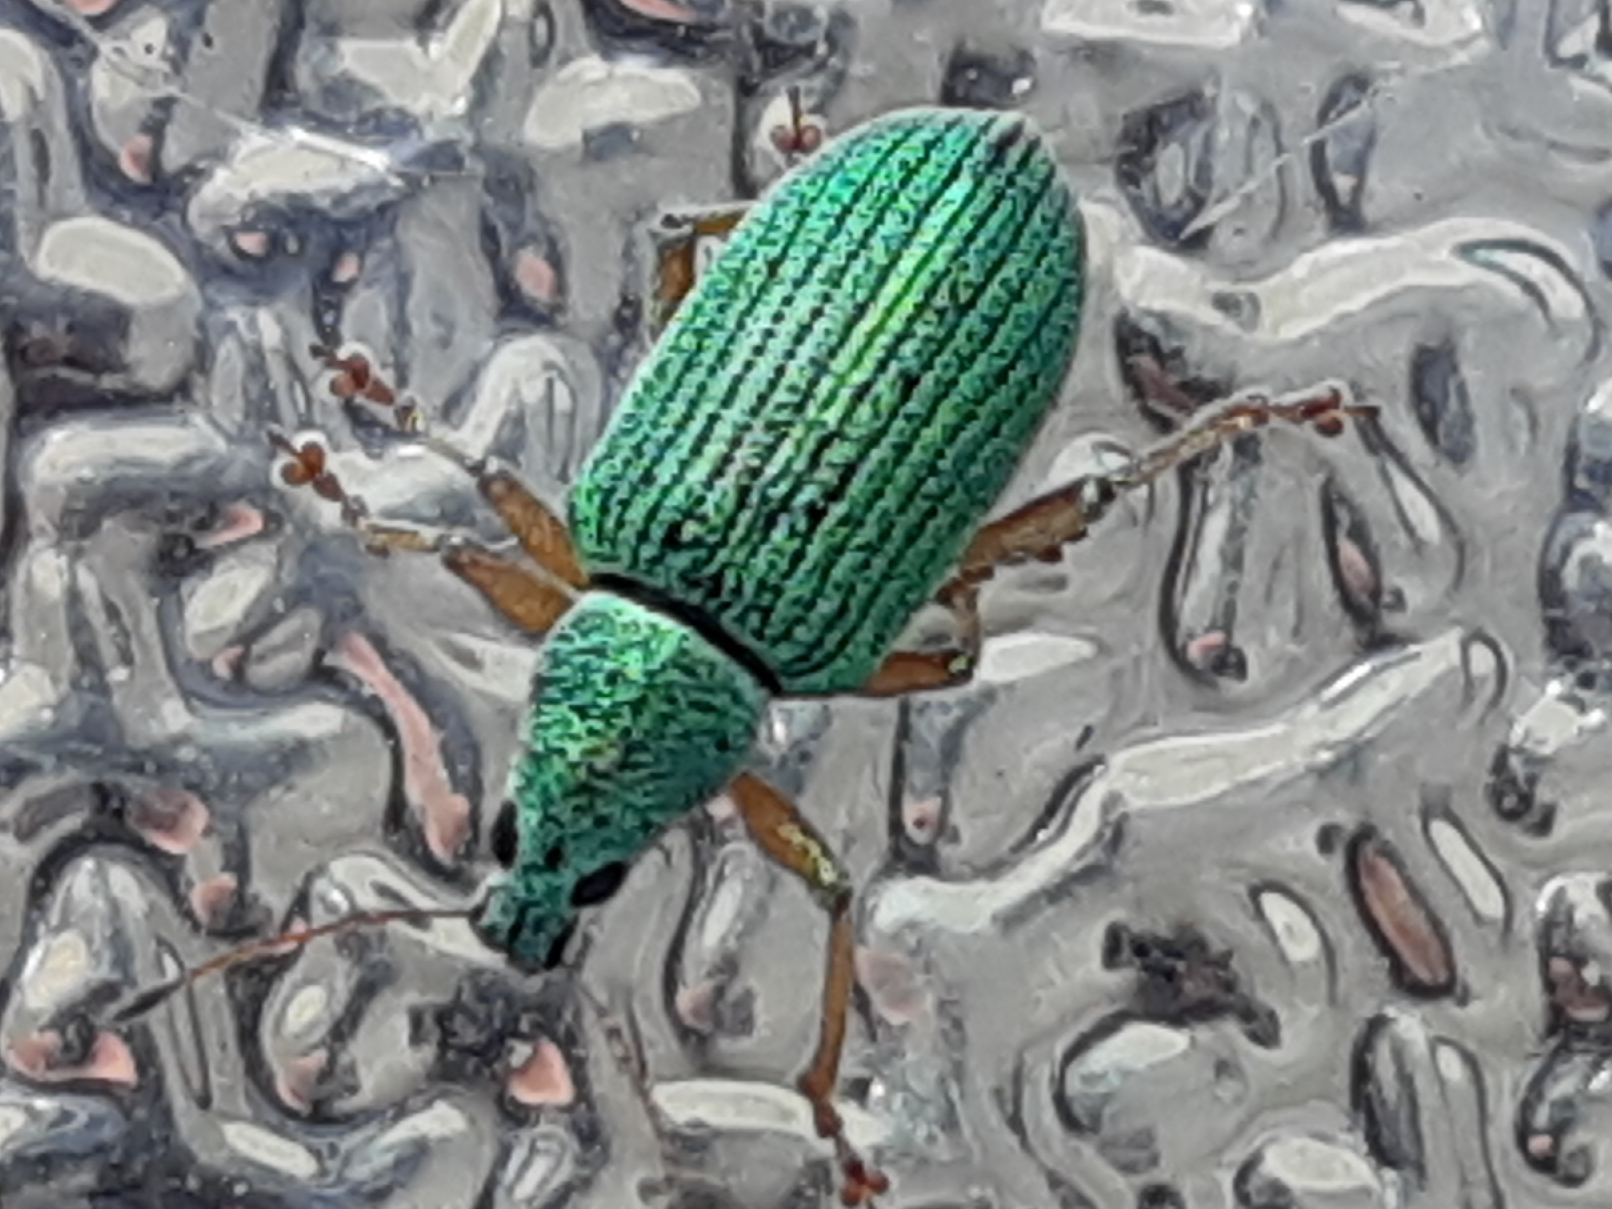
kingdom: Animalia
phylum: Arthropoda
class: Insecta
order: Coleoptera
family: Curculionidae
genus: Polydrusus
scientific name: Polydrusus formosus
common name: Weevil
